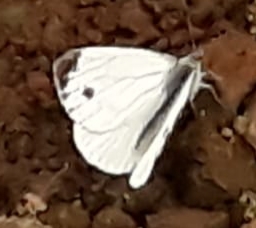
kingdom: Animalia
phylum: Arthropoda
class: Insecta
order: Lepidoptera
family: Pieridae
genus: Pieris
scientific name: Pieris napi
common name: Green-veined white
